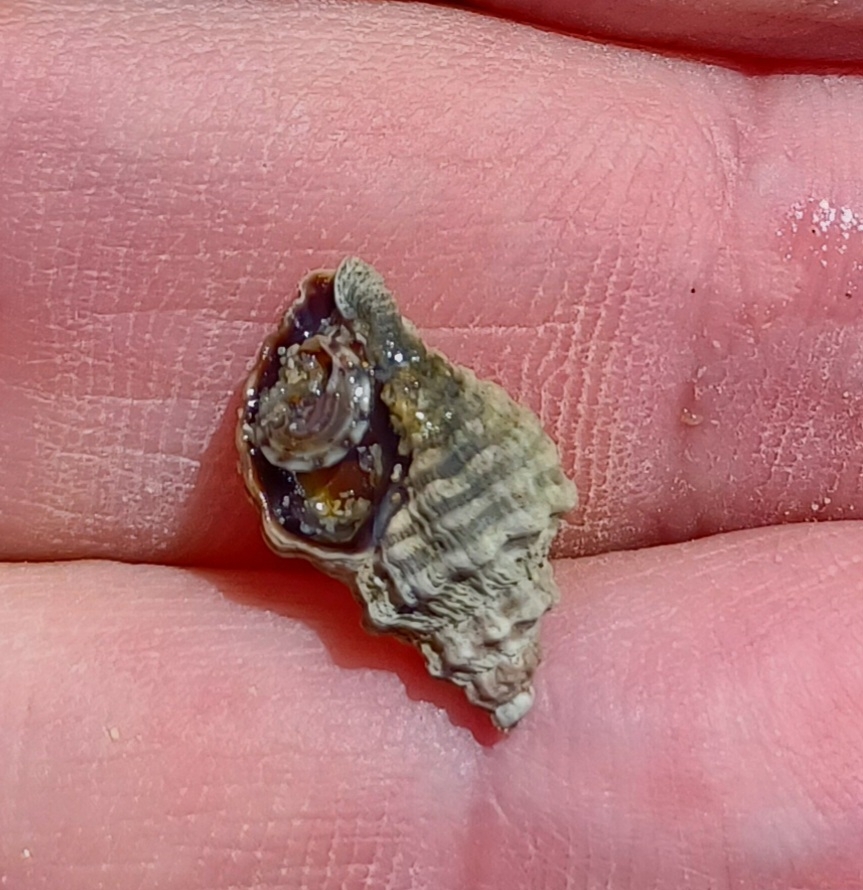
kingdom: Animalia
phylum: Mollusca
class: Gastropoda
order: Neogastropoda
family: Muricidae
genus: Bedeva
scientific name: Bedeva vinosa
